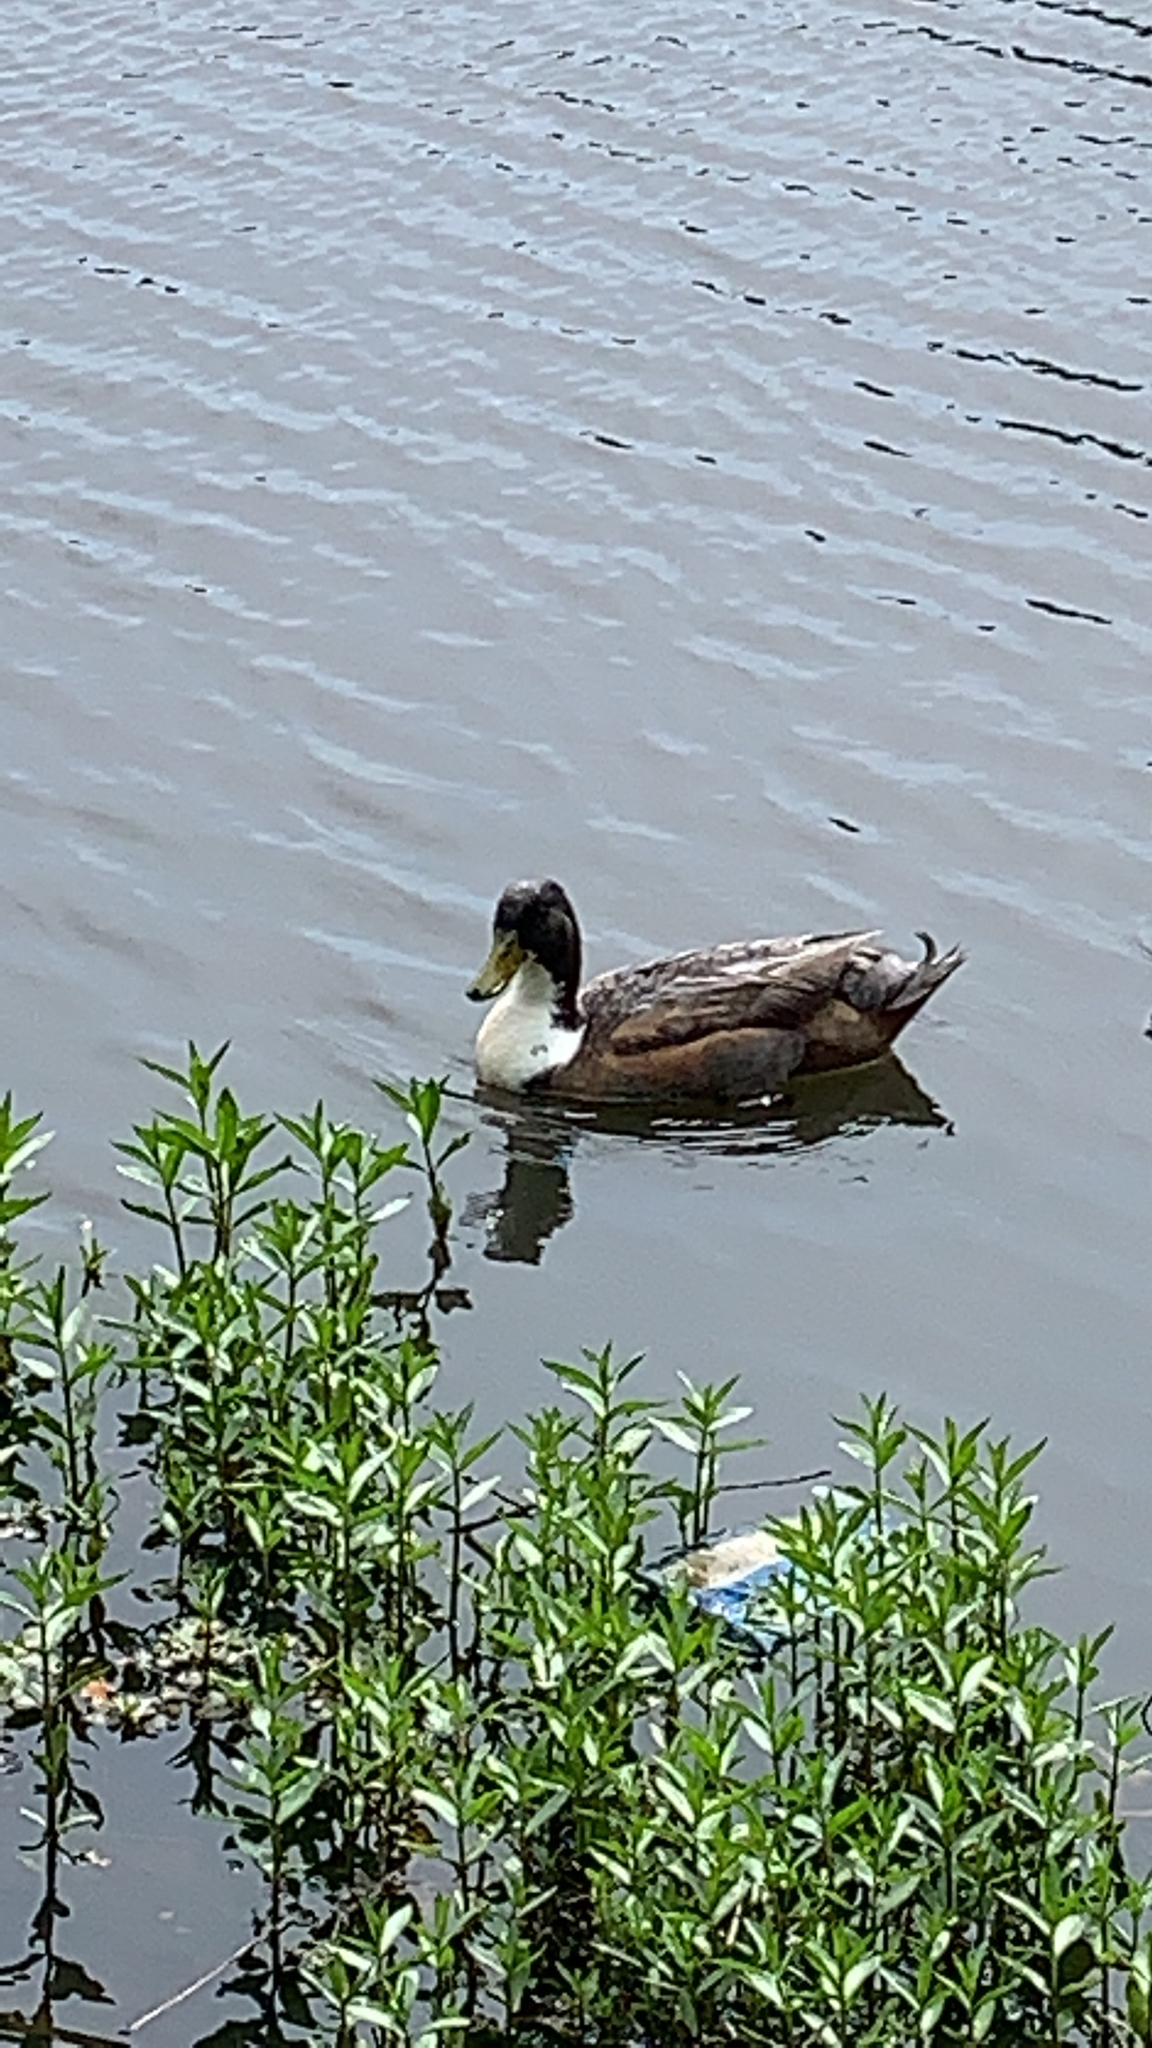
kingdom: Animalia
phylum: Chordata
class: Aves
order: Anseriformes
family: Anatidae
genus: Anas
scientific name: Anas platyrhynchos
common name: Mallard
